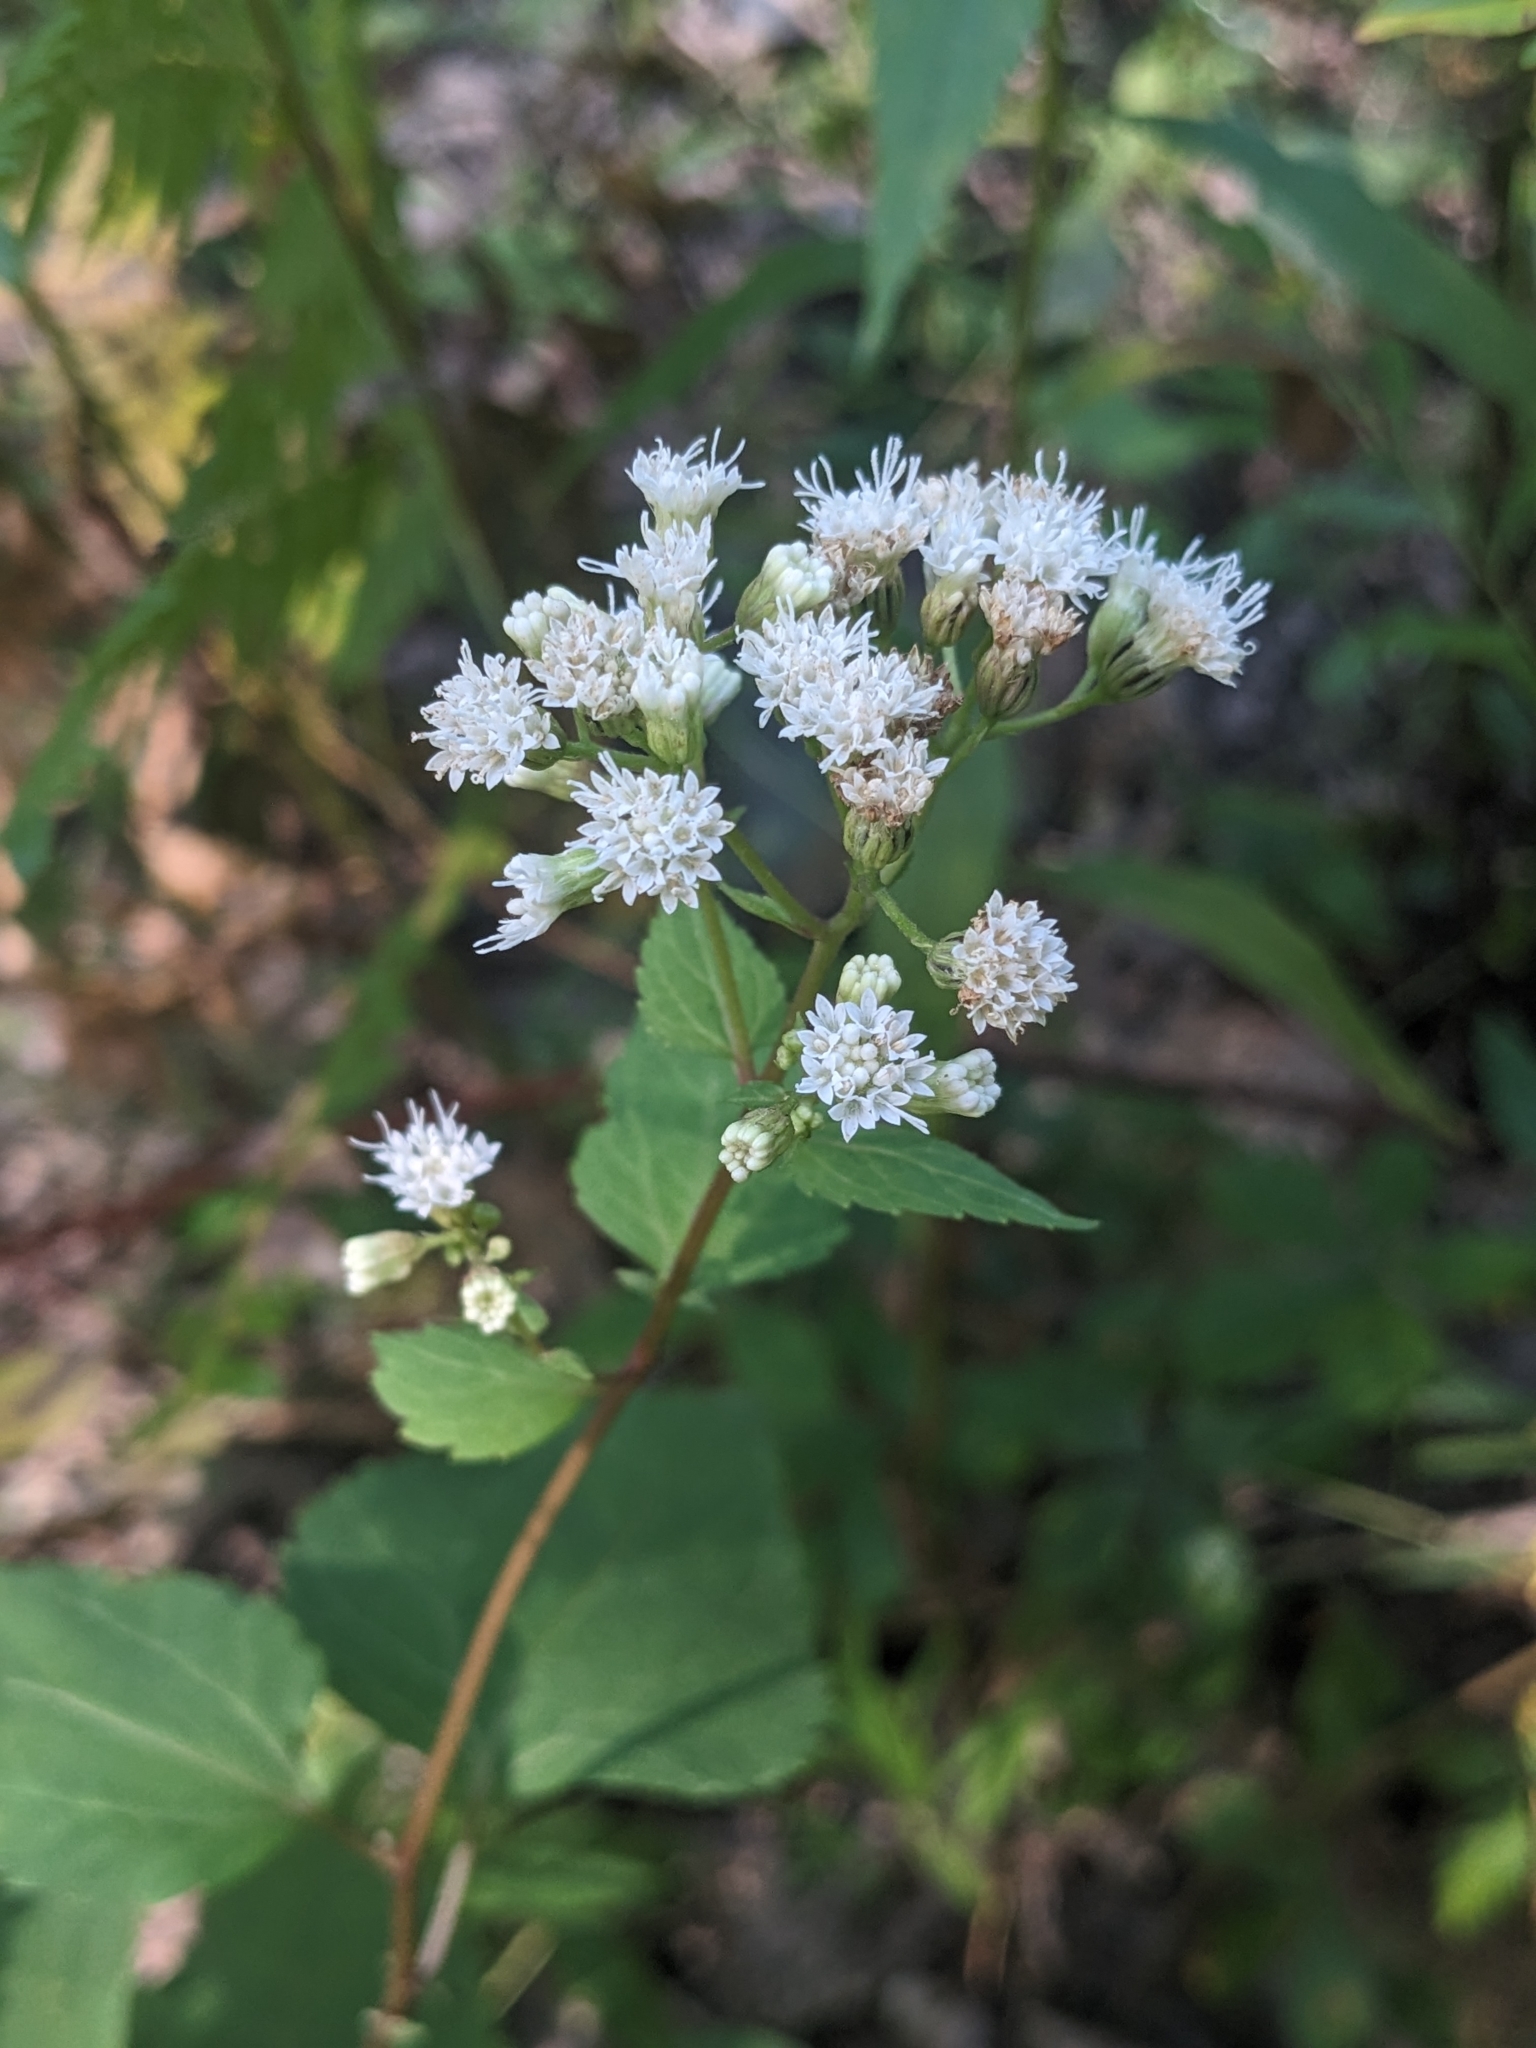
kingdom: Plantae
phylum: Tracheophyta
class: Magnoliopsida
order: Asterales
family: Asteraceae
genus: Ageratina
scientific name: Ageratina altissima
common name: White snakeroot
